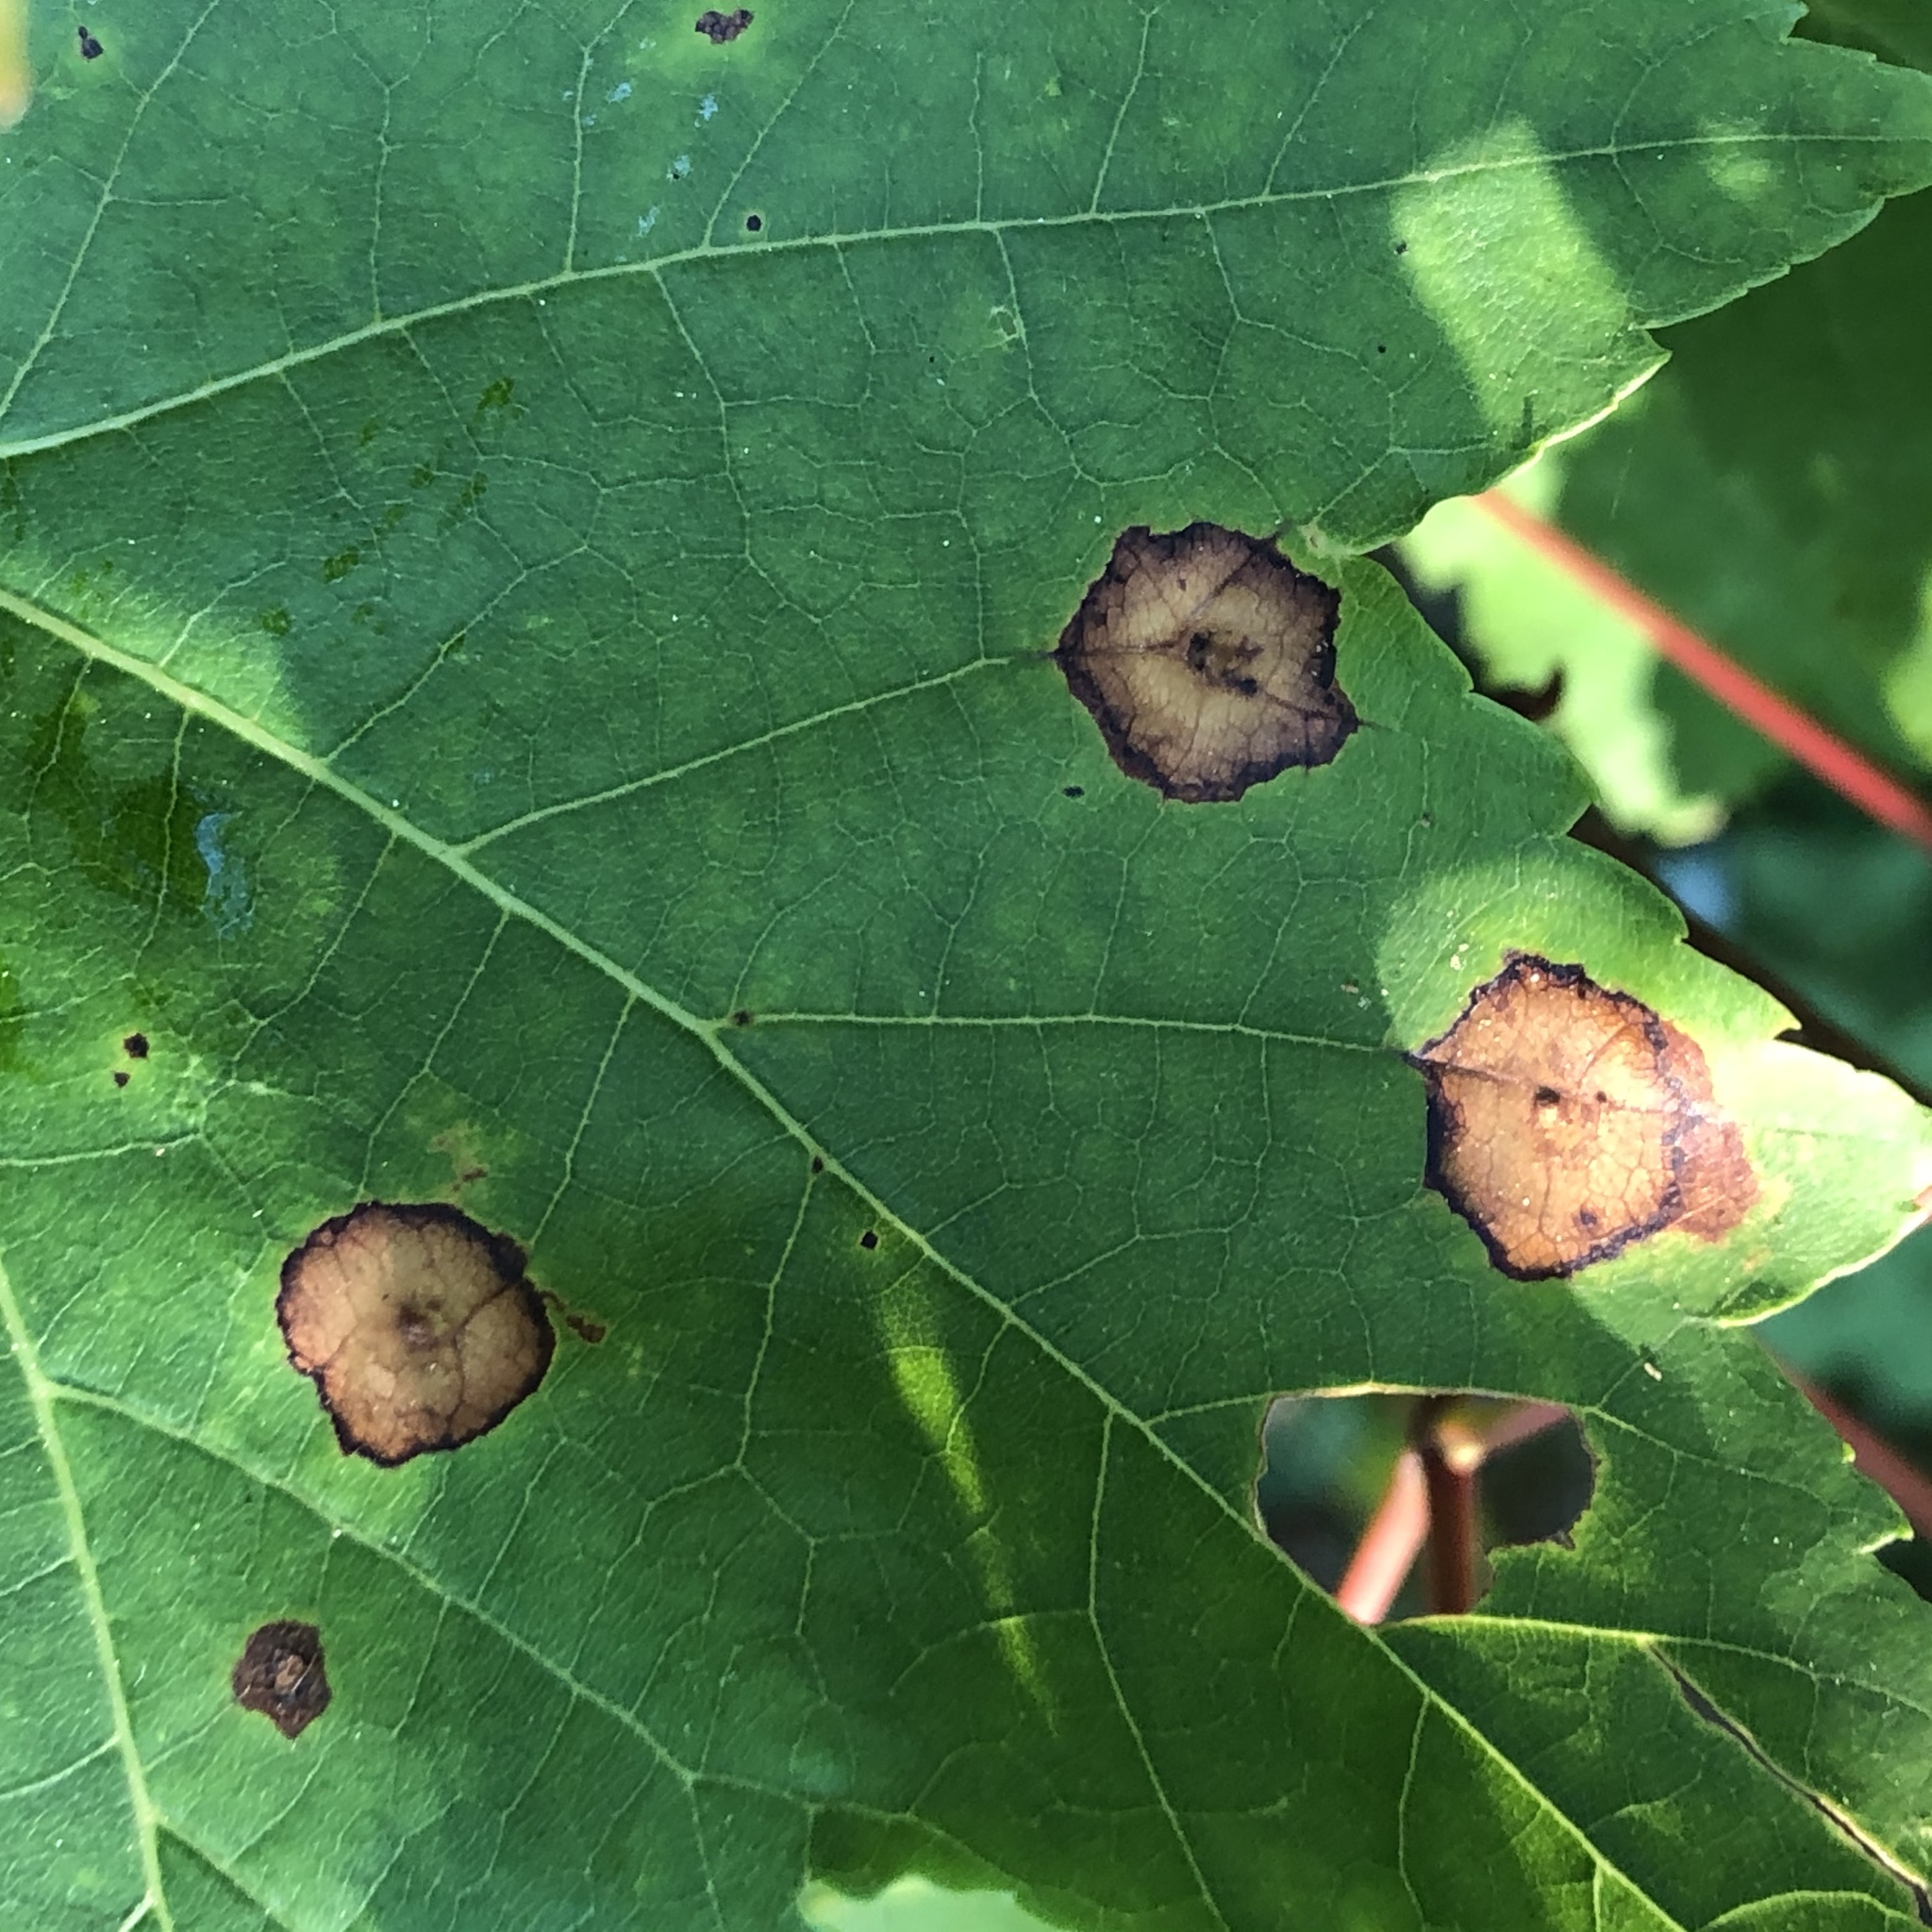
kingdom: Animalia
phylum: Arthropoda
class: Insecta
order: Diptera
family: Cecidomyiidae
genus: Acericecis
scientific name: Acericecis ocellaris
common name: Ocellate gall midge
